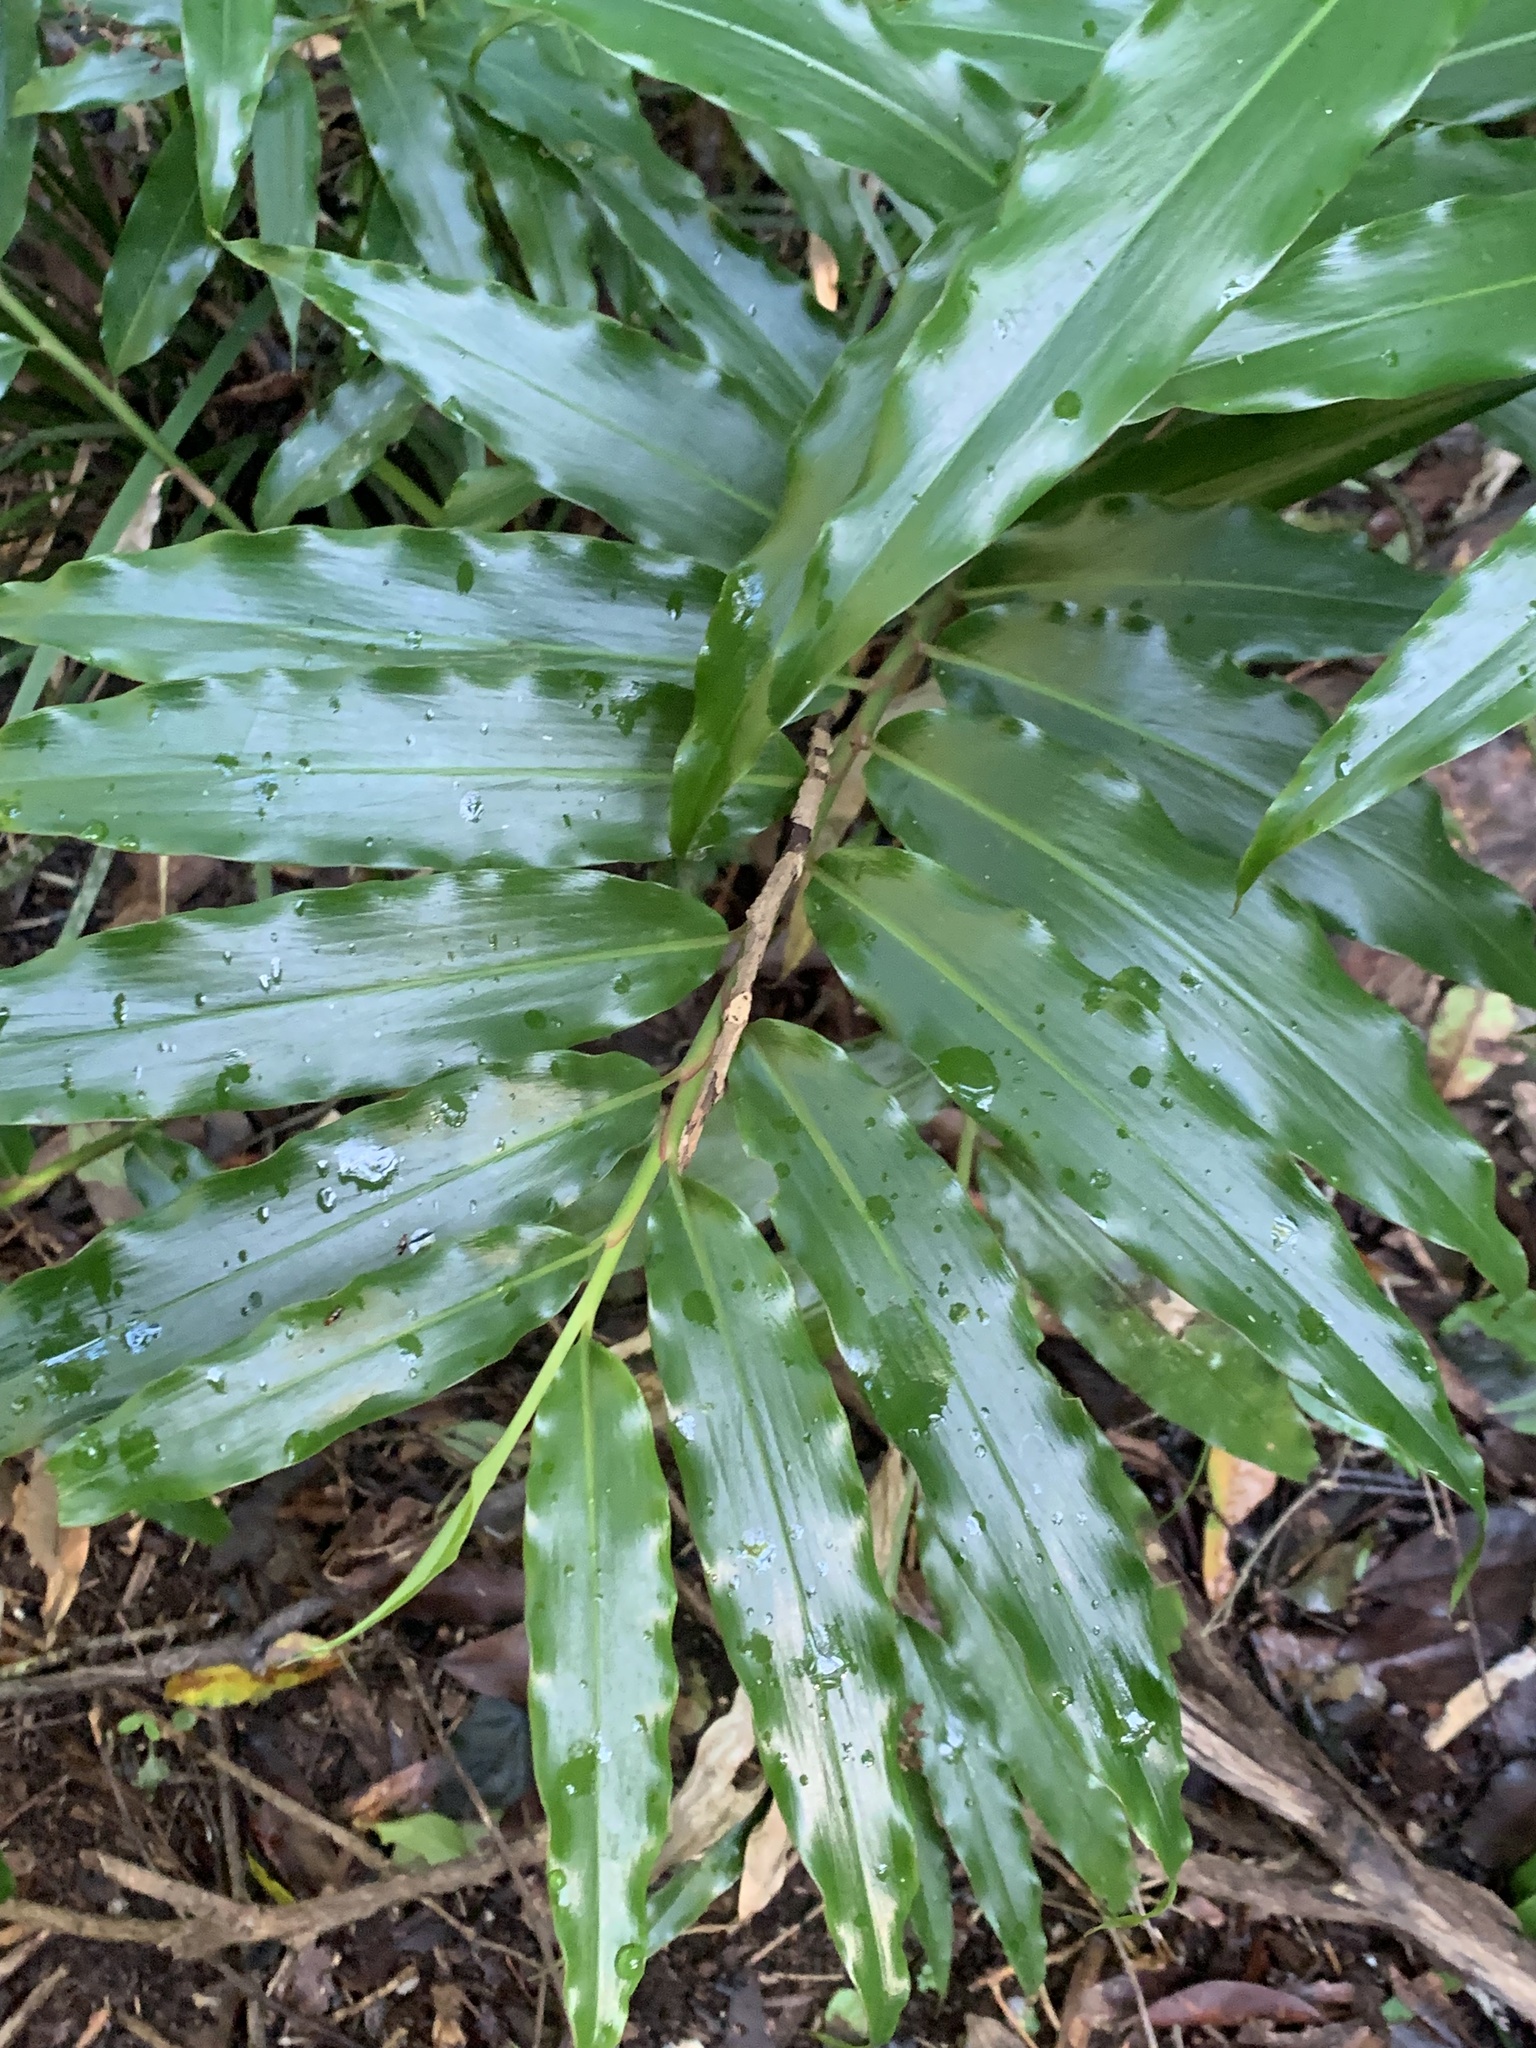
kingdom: Plantae
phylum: Tracheophyta
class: Liliopsida
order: Zingiberales
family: Zingiberaceae
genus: Alpinia
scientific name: Alpinia caerulea
